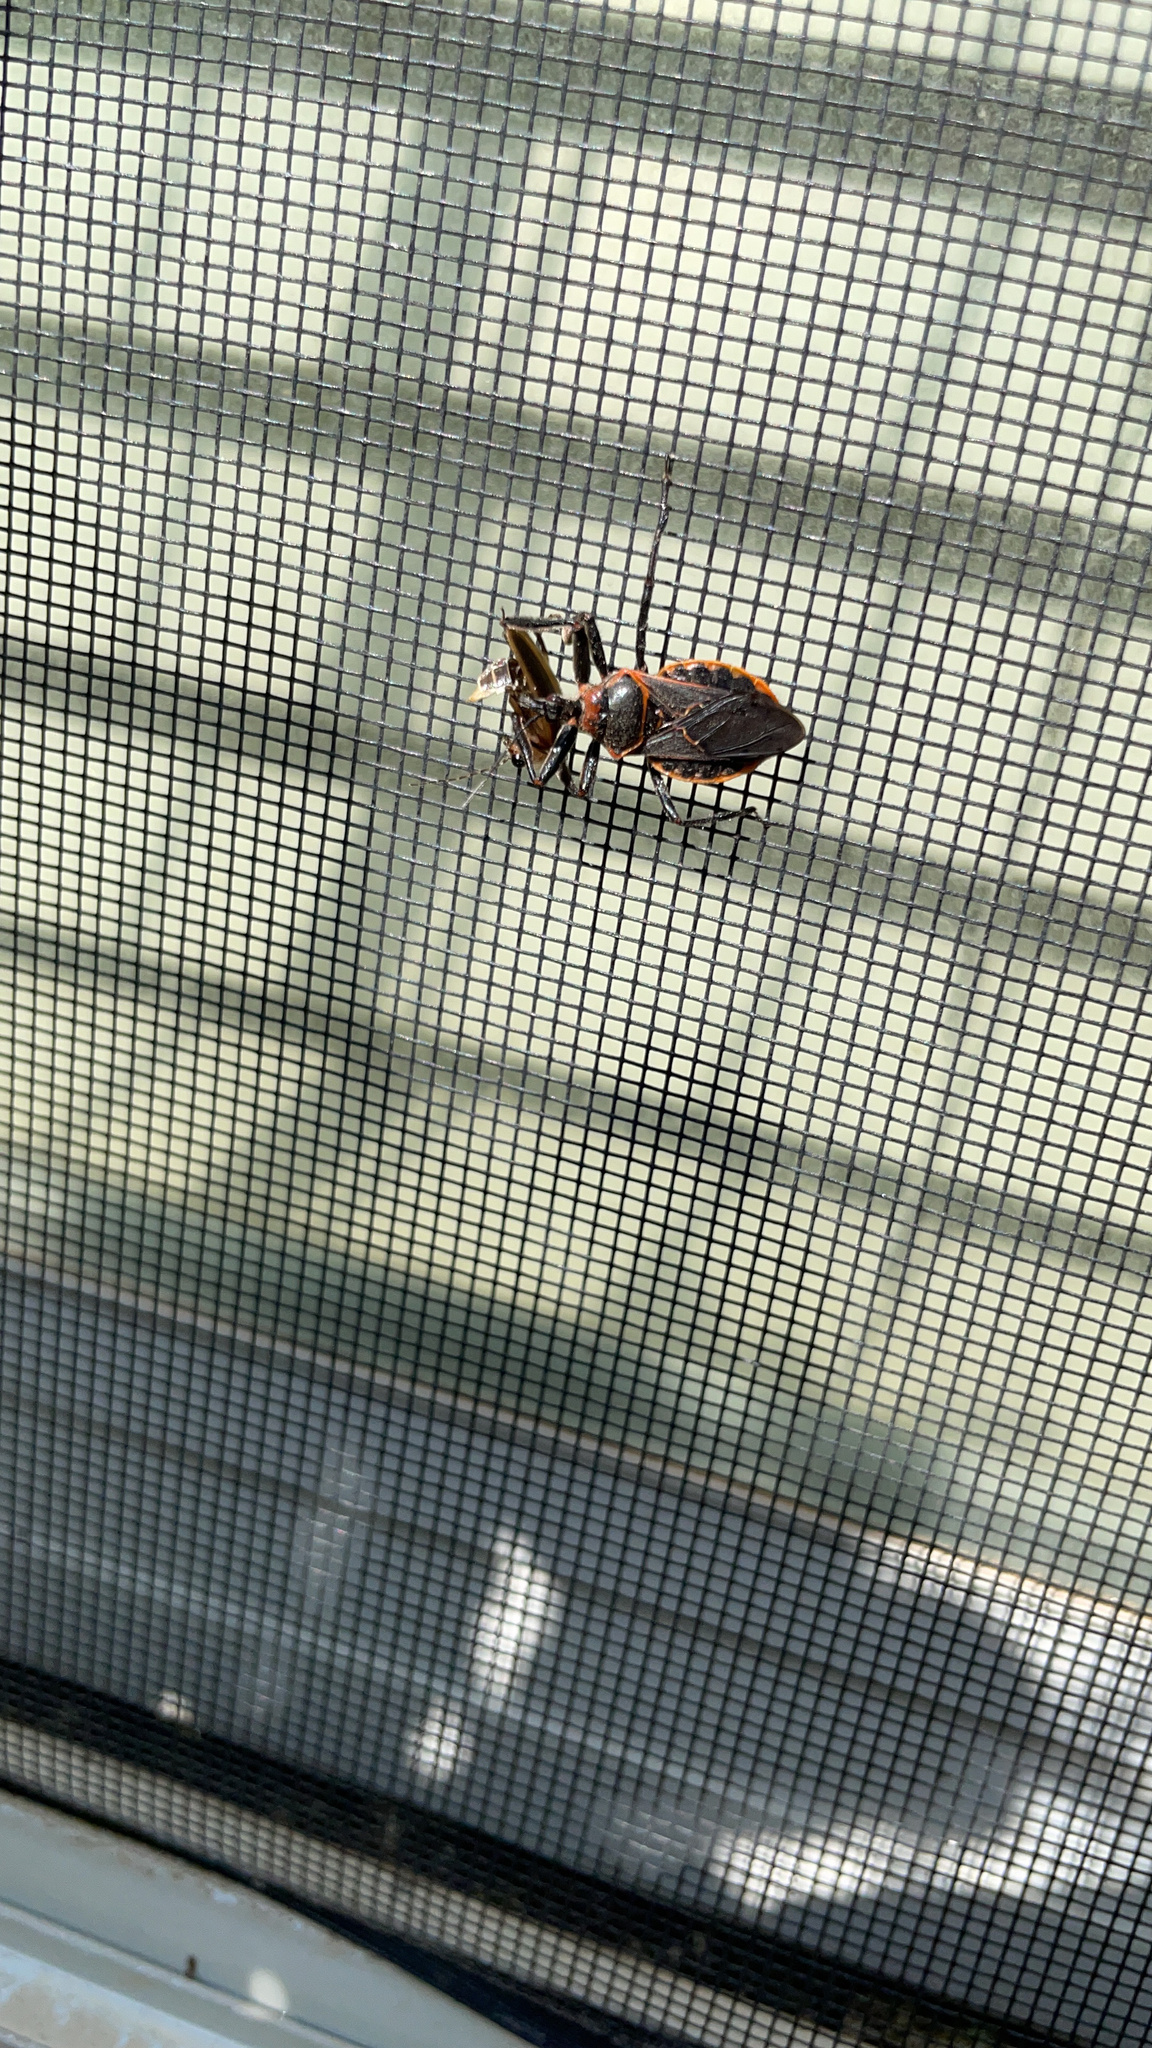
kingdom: Animalia
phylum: Arthropoda
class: Insecta
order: Hemiptera
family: Reduviidae
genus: Apiomerus
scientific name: Apiomerus crassipes
